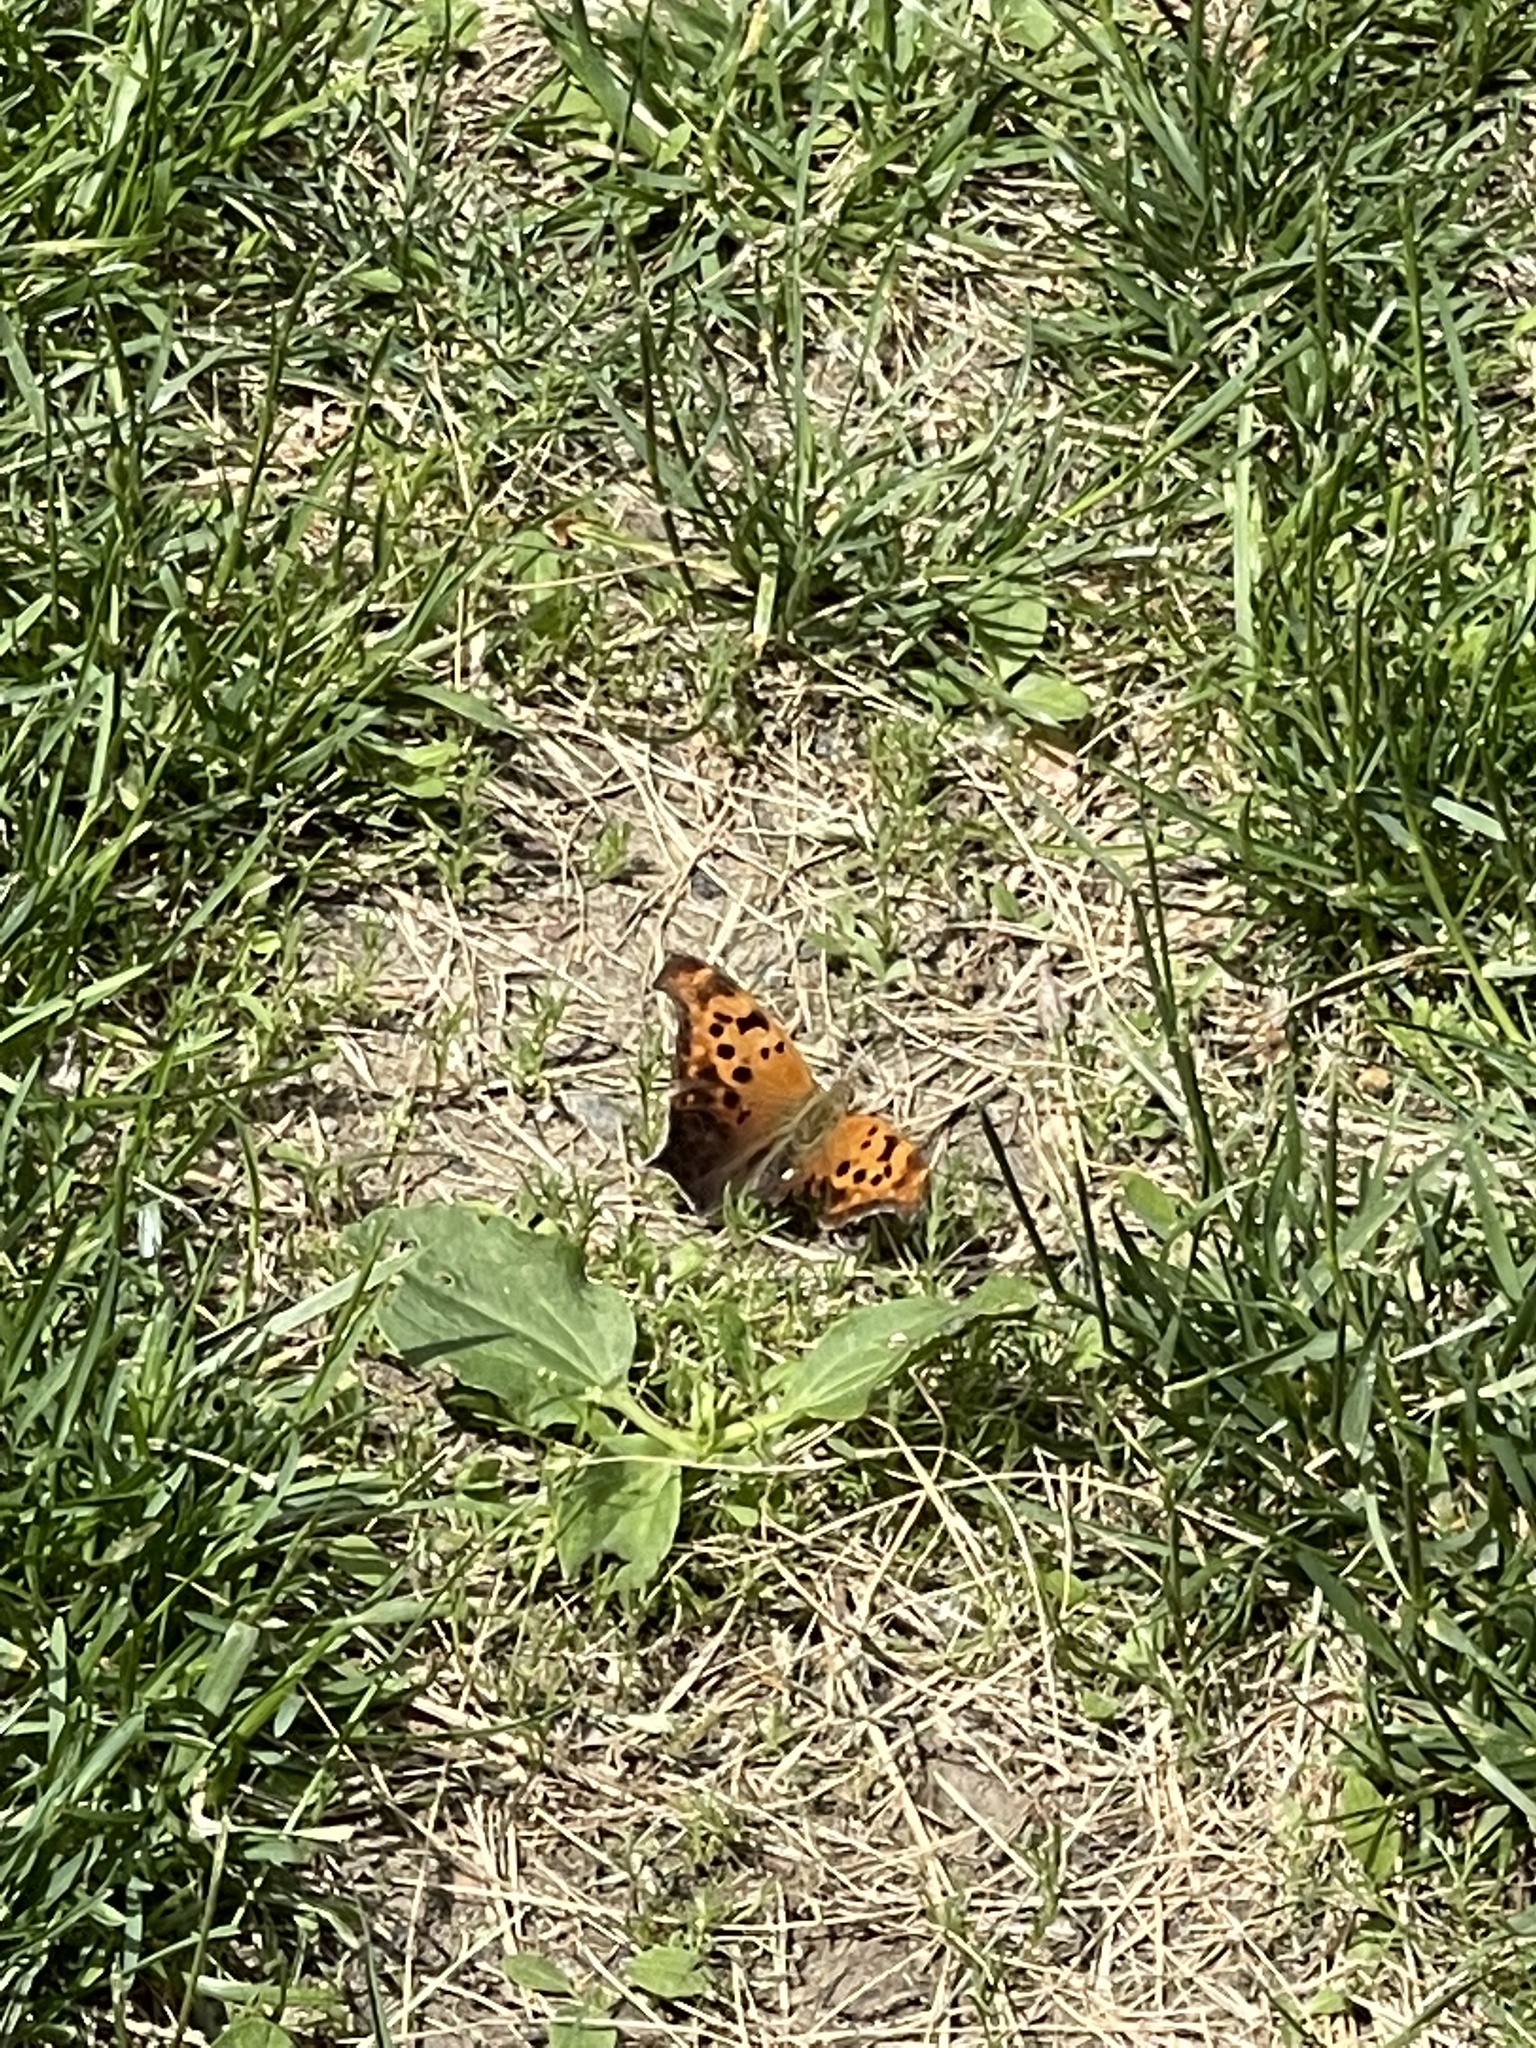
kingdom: Animalia
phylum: Arthropoda
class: Insecta
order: Lepidoptera
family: Nymphalidae
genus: Polygonia
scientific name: Polygonia interrogationis
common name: Question mark
